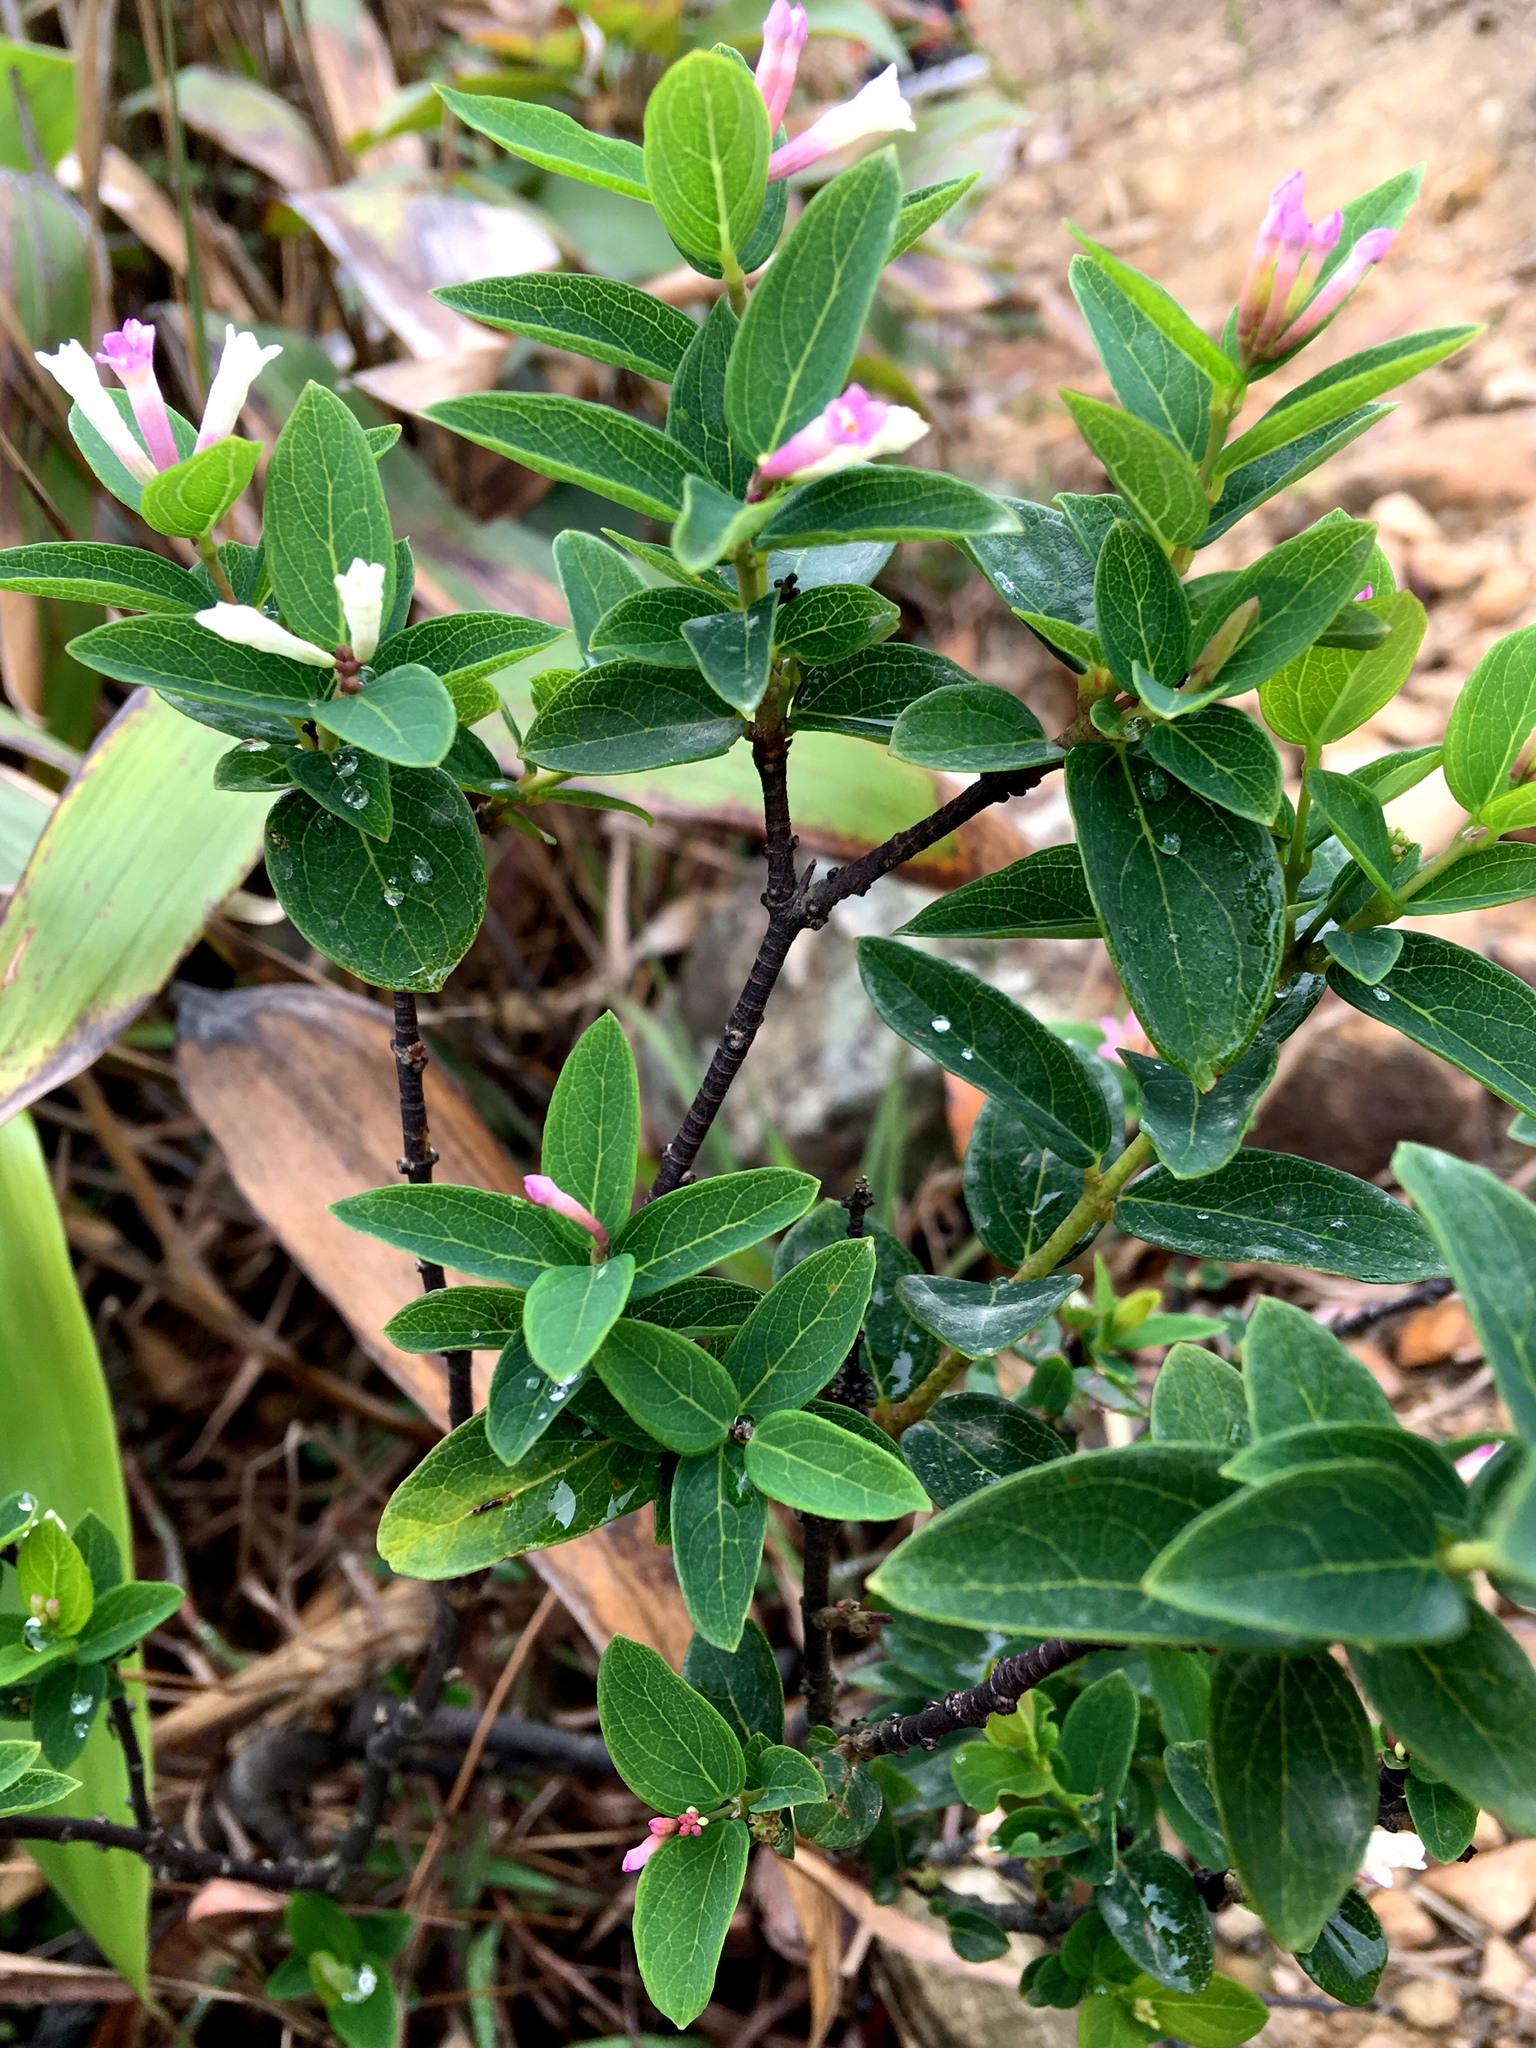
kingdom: Plantae
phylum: Tracheophyta
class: Magnoliopsida
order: Malvales
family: Thymelaeaceae
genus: Wikstroemia
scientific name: Wikstroemia monnula
